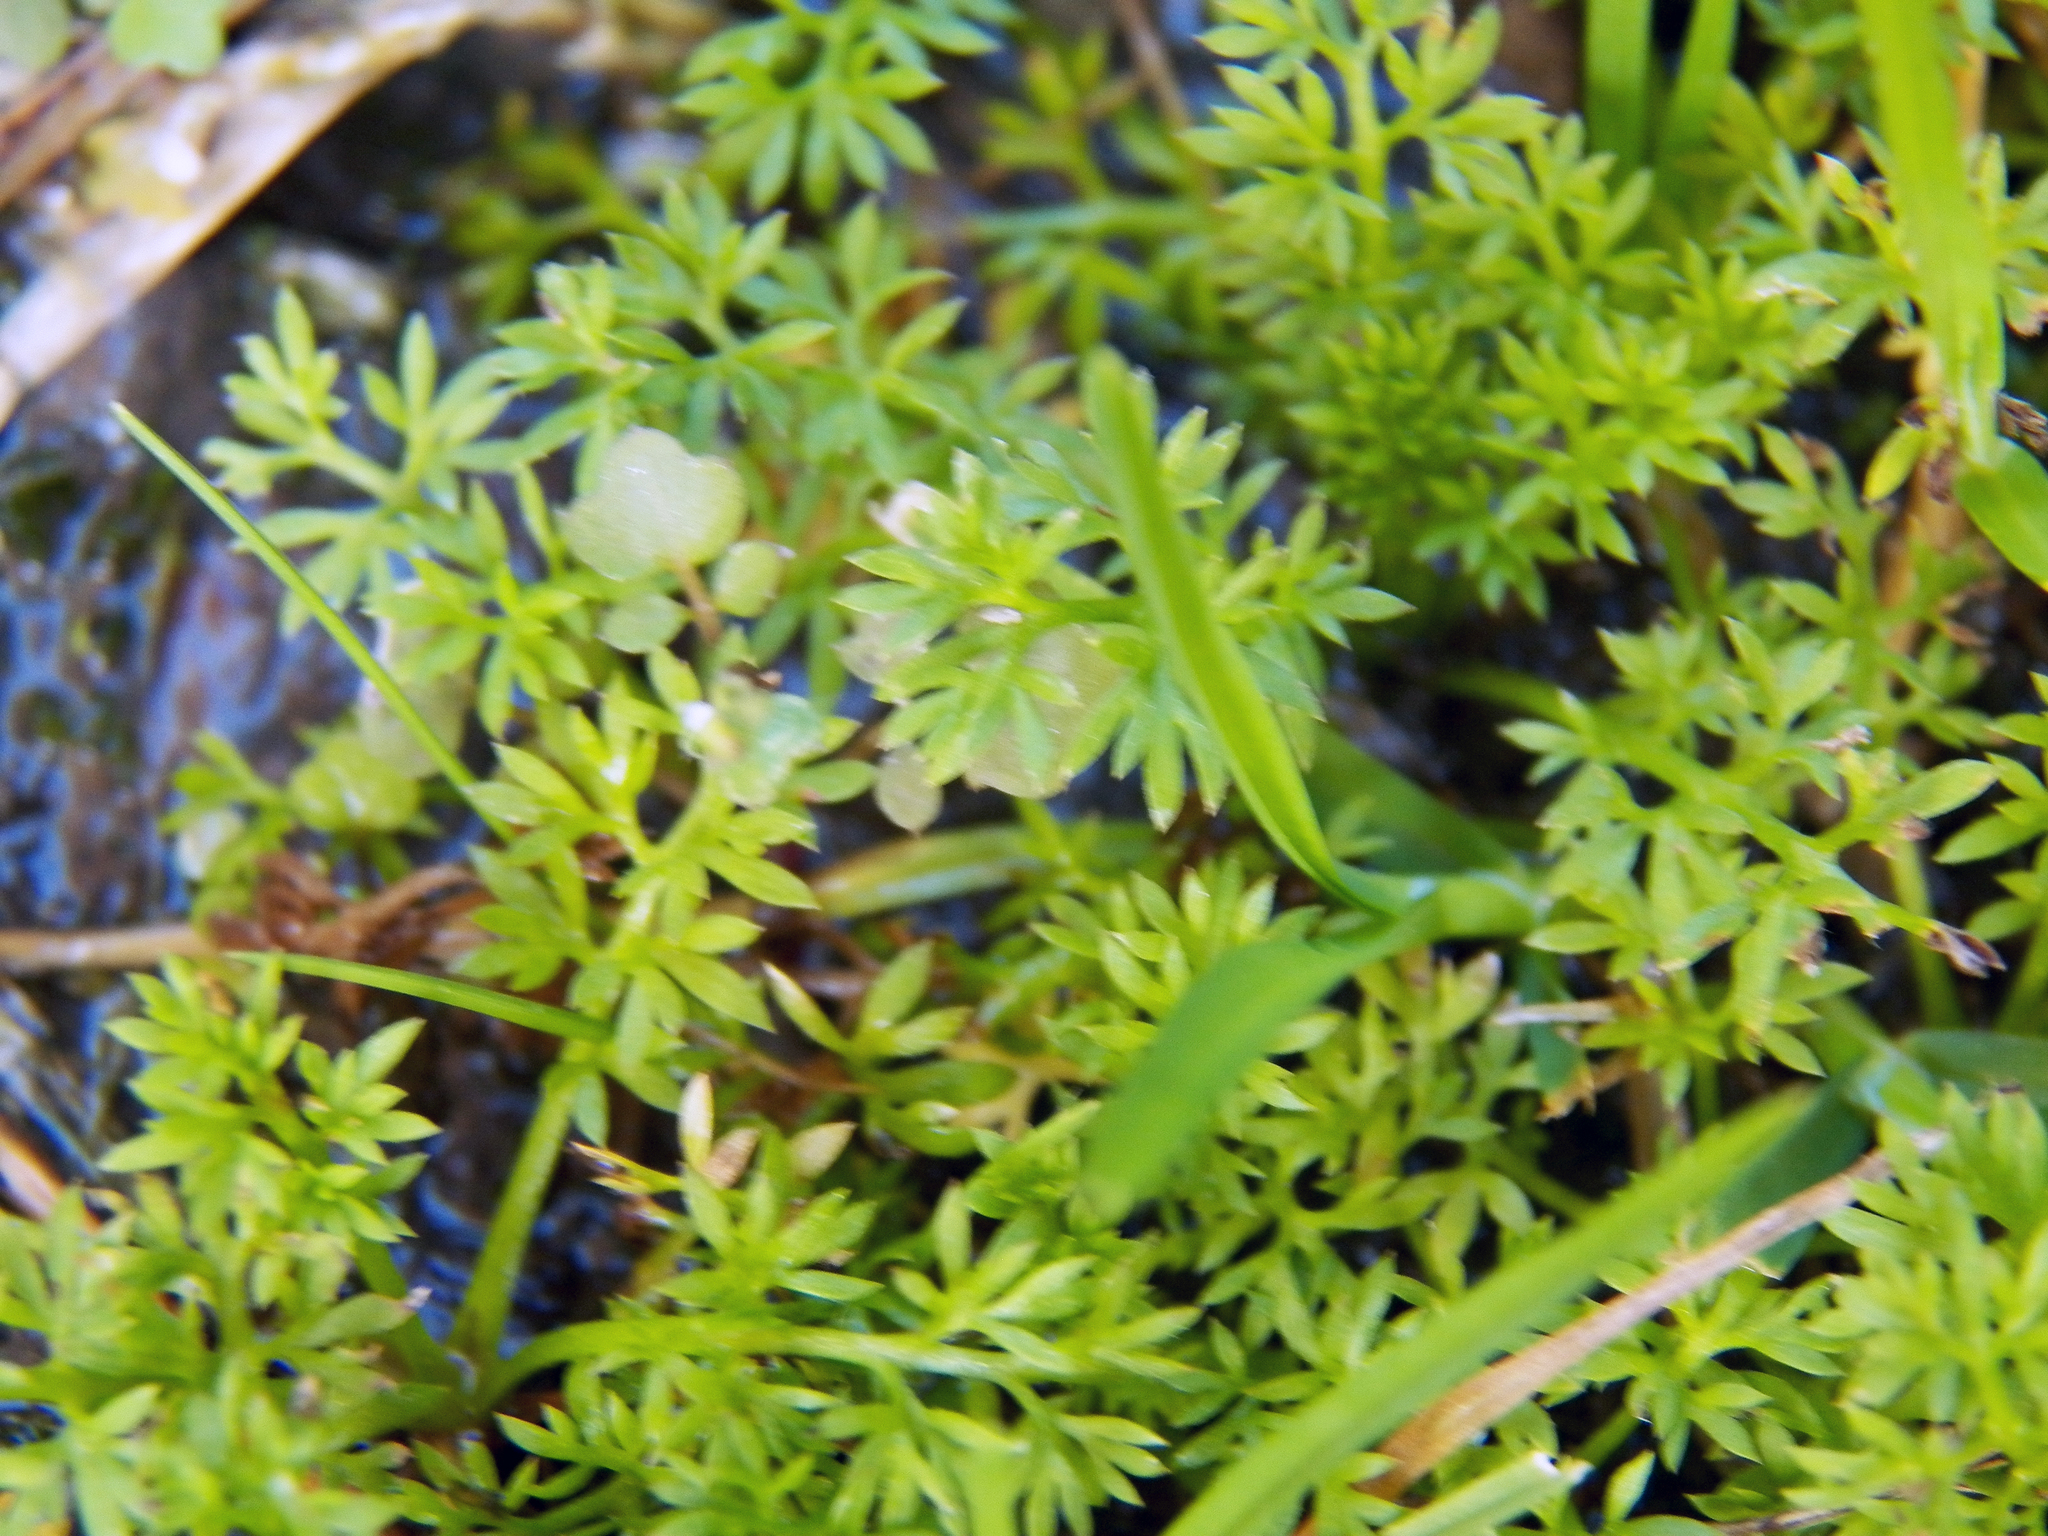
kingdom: Plantae
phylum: Tracheophyta
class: Magnoliopsida
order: Asterales
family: Asteraceae
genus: Soliva
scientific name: Soliva sessilis
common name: Field burrweed
